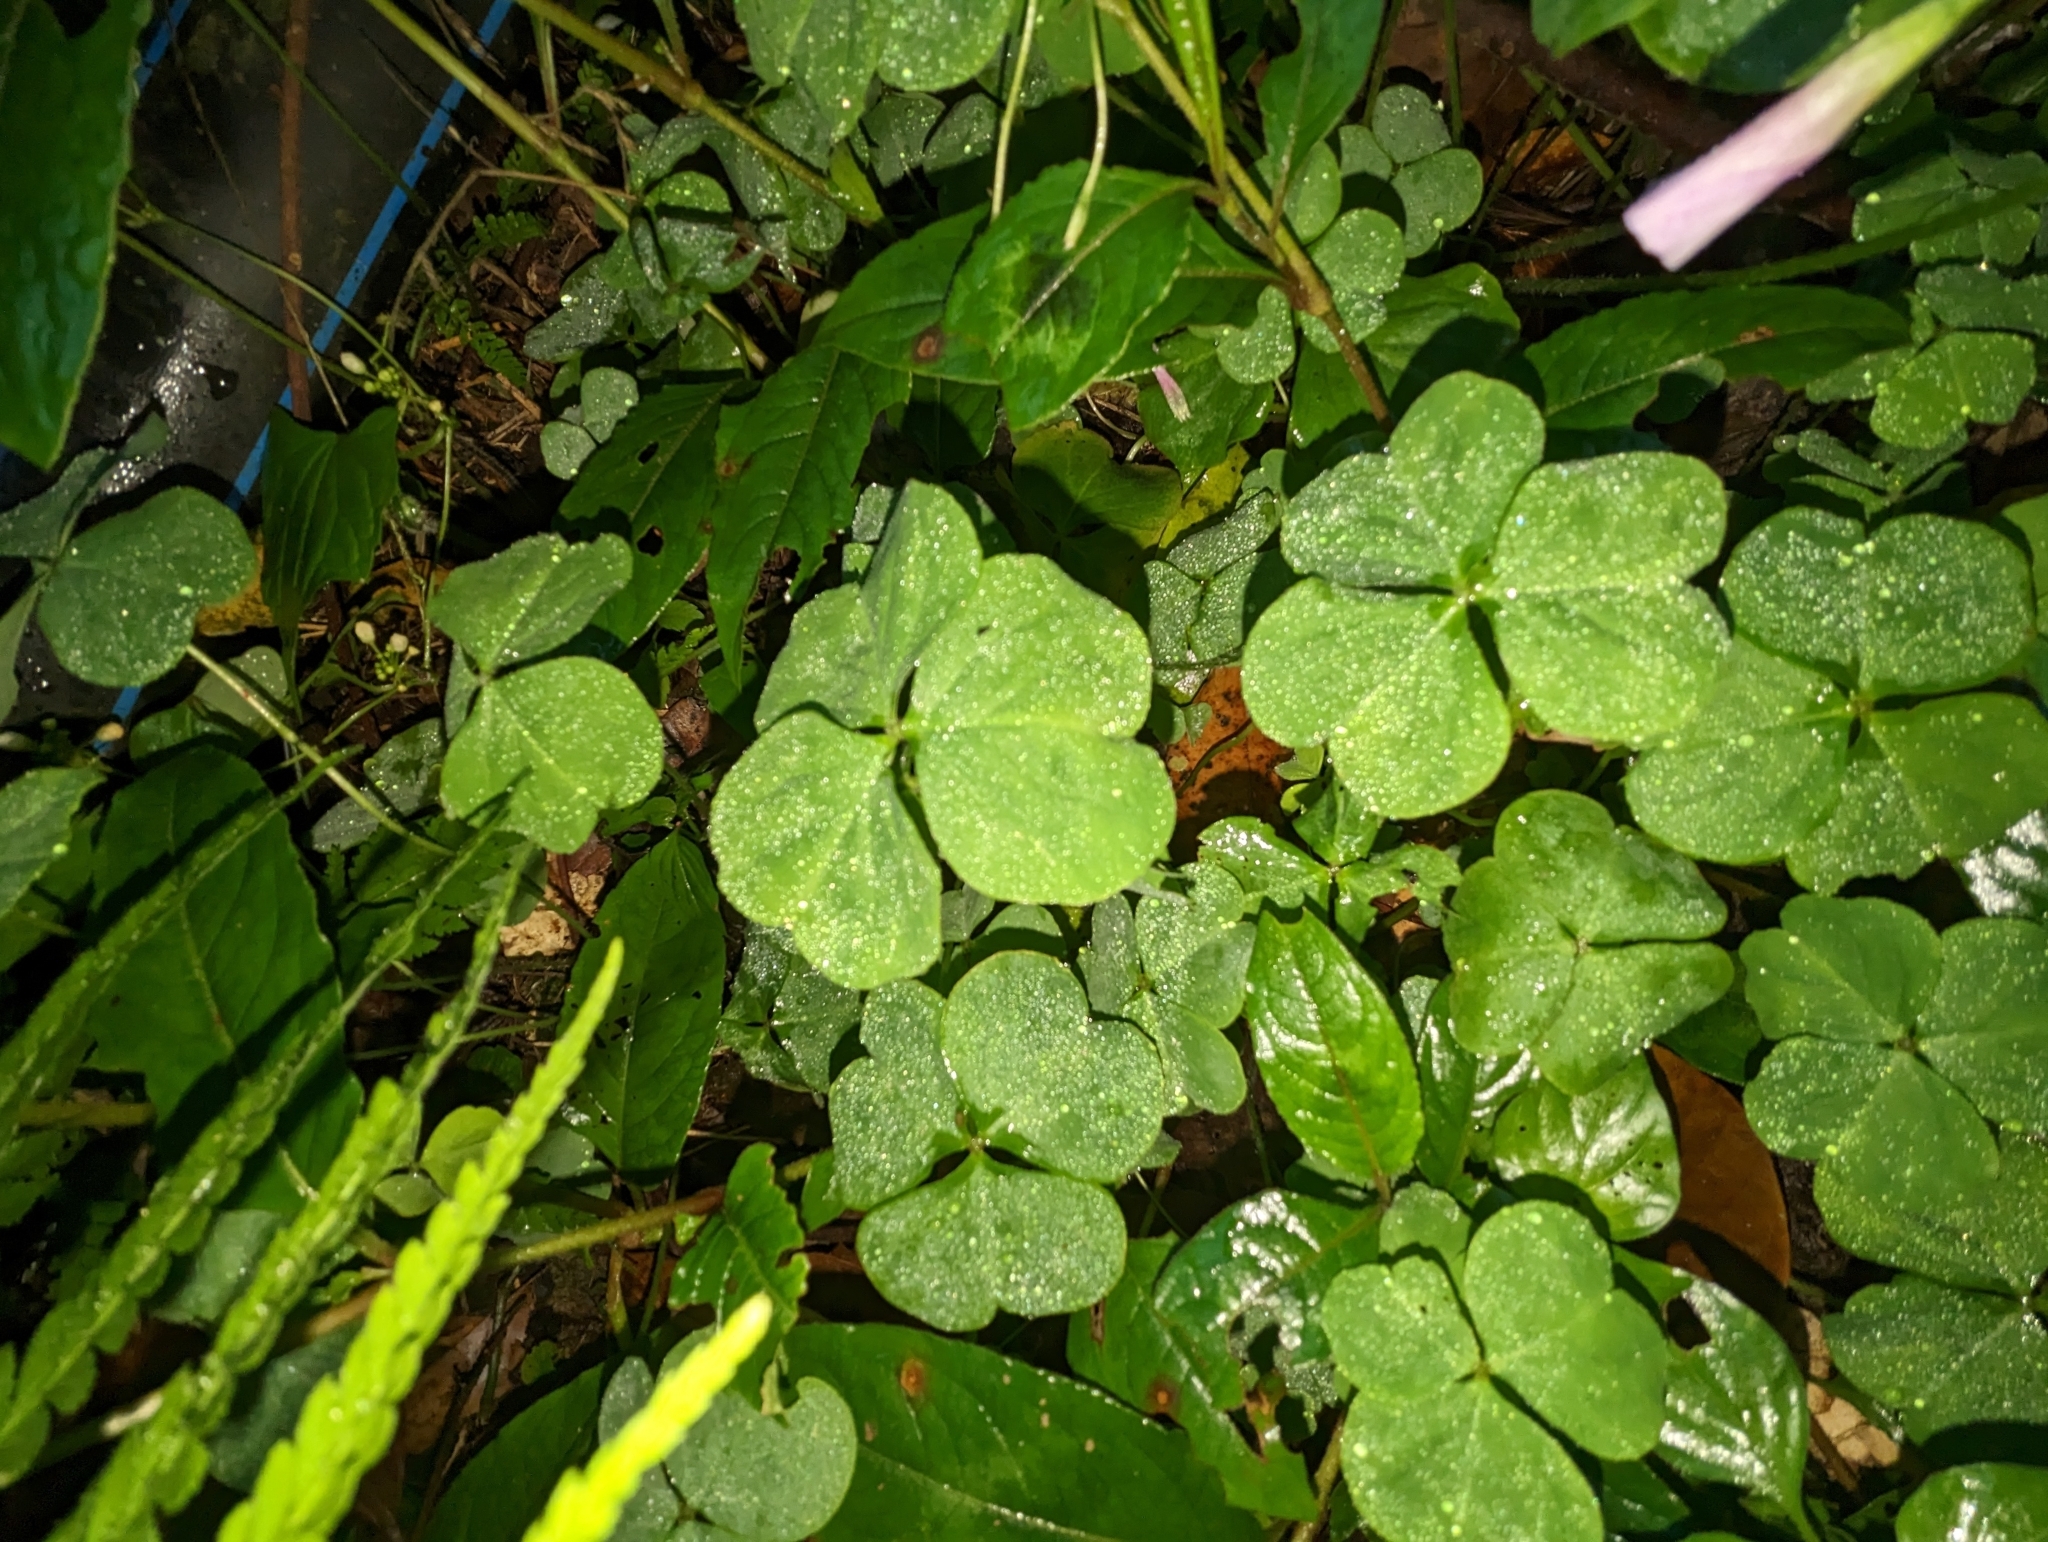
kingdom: Plantae
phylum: Tracheophyta
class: Magnoliopsida
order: Oxalidales
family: Oxalidaceae
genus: Oxalis
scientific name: Oxalis debilis
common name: Large-flowered pink-sorrel
